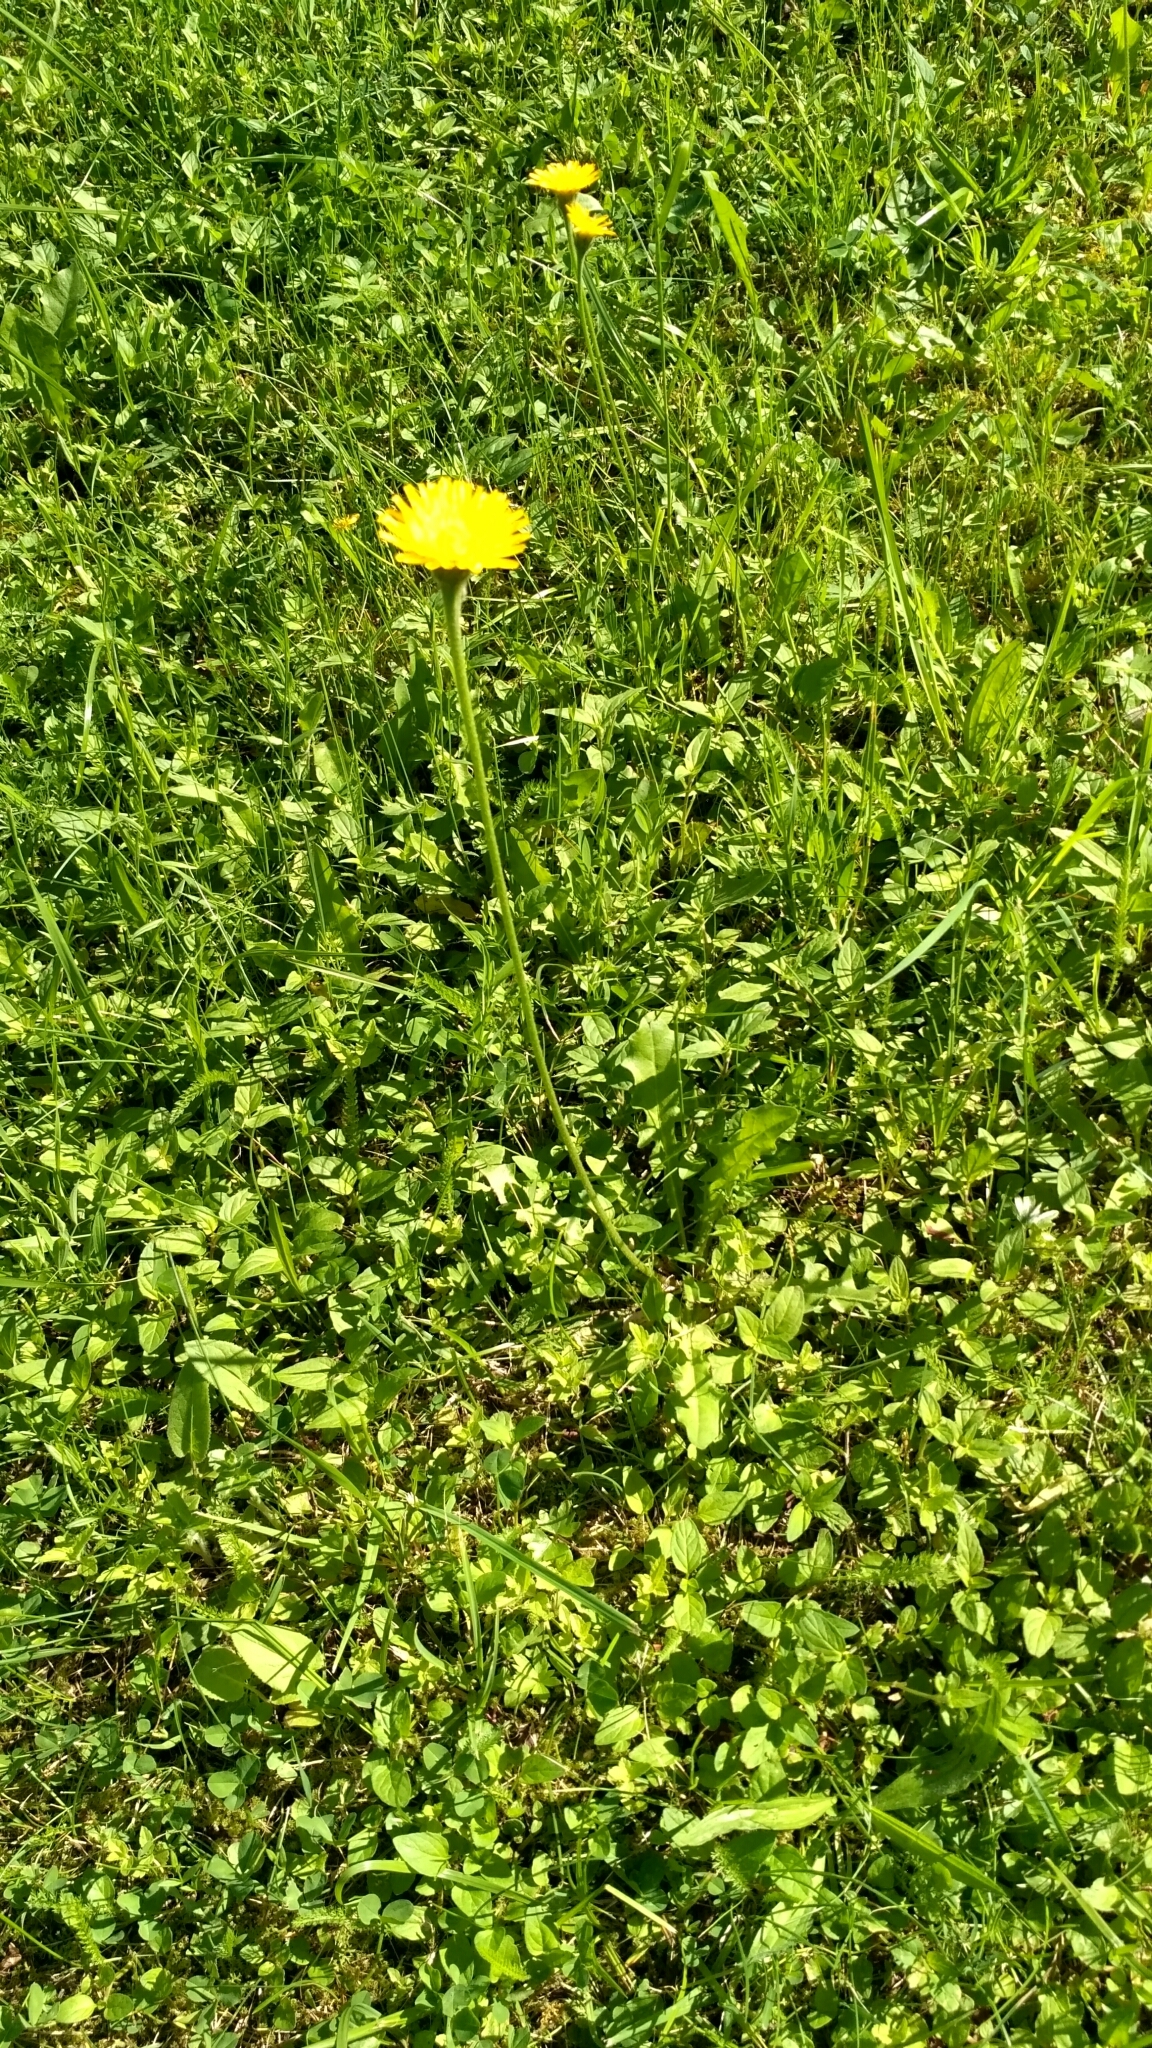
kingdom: Plantae
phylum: Tracheophyta
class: Magnoliopsida
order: Asterales
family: Asteraceae
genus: Leontodon
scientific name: Leontodon hispidus
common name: Rough hawkbit
